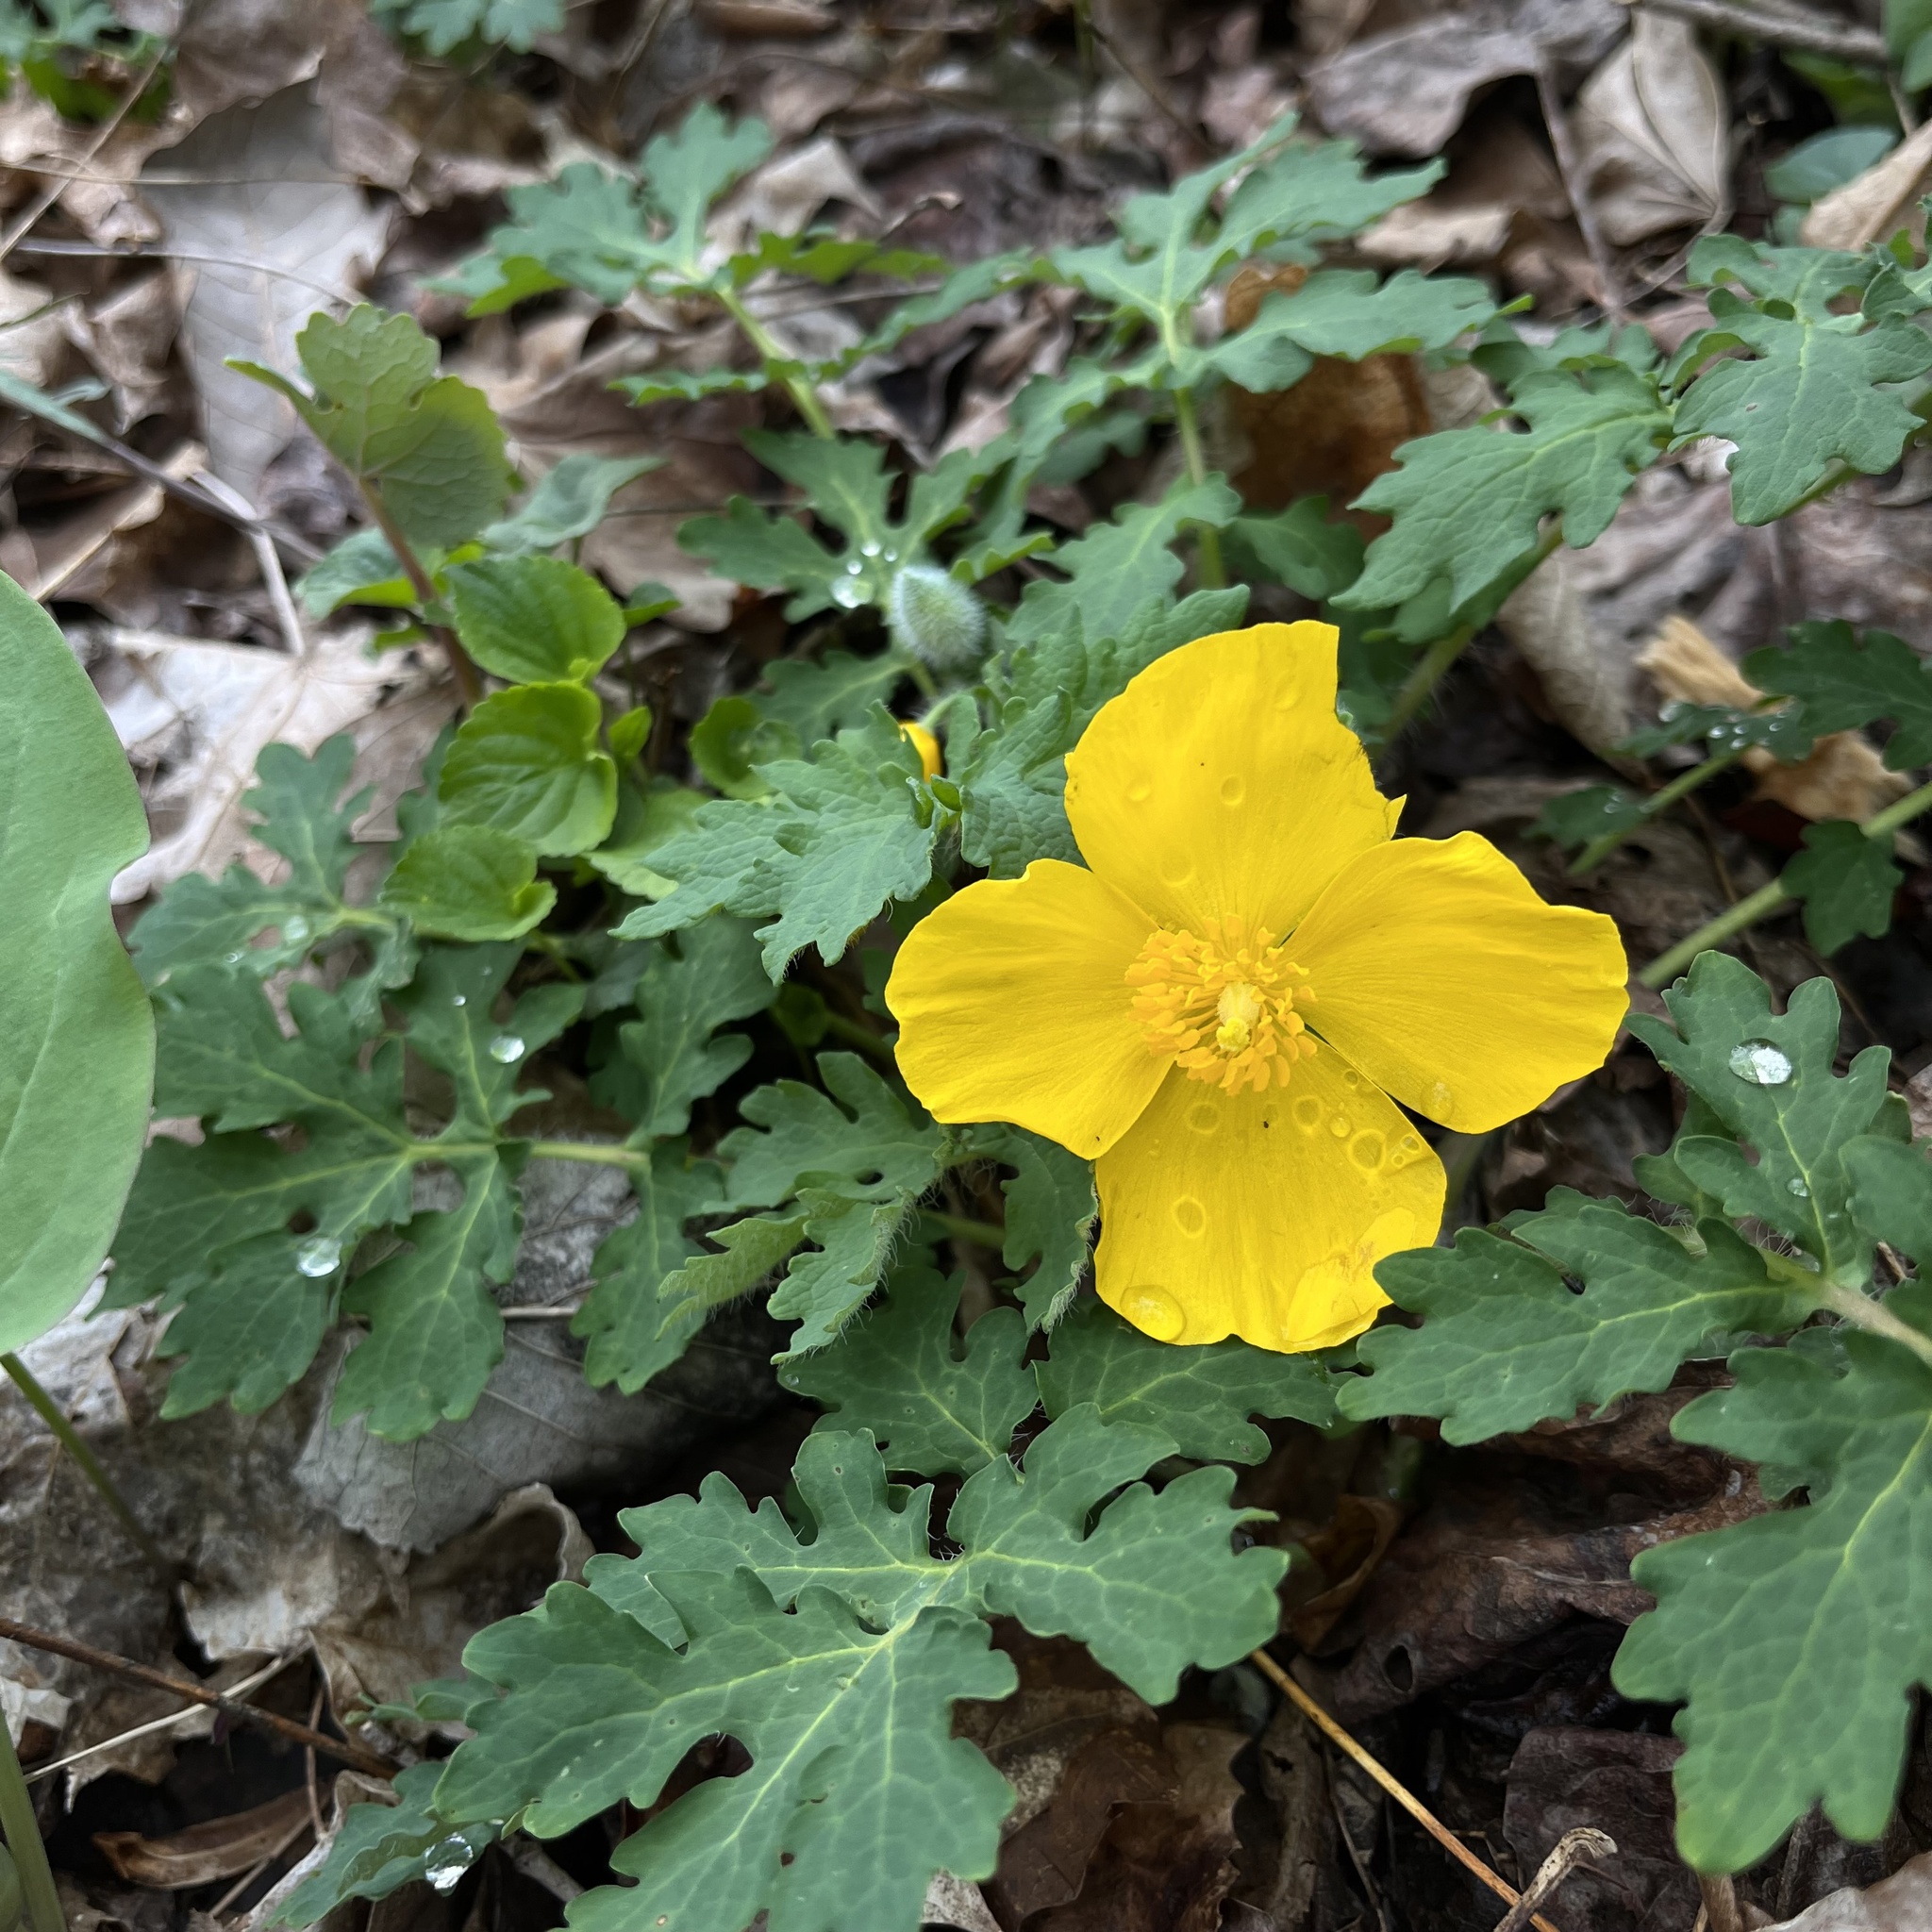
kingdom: Plantae
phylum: Tracheophyta
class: Magnoliopsida
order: Ranunculales
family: Papaveraceae
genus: Stylophorum
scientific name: Stylophorum diphyllum
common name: Celandine poppy
